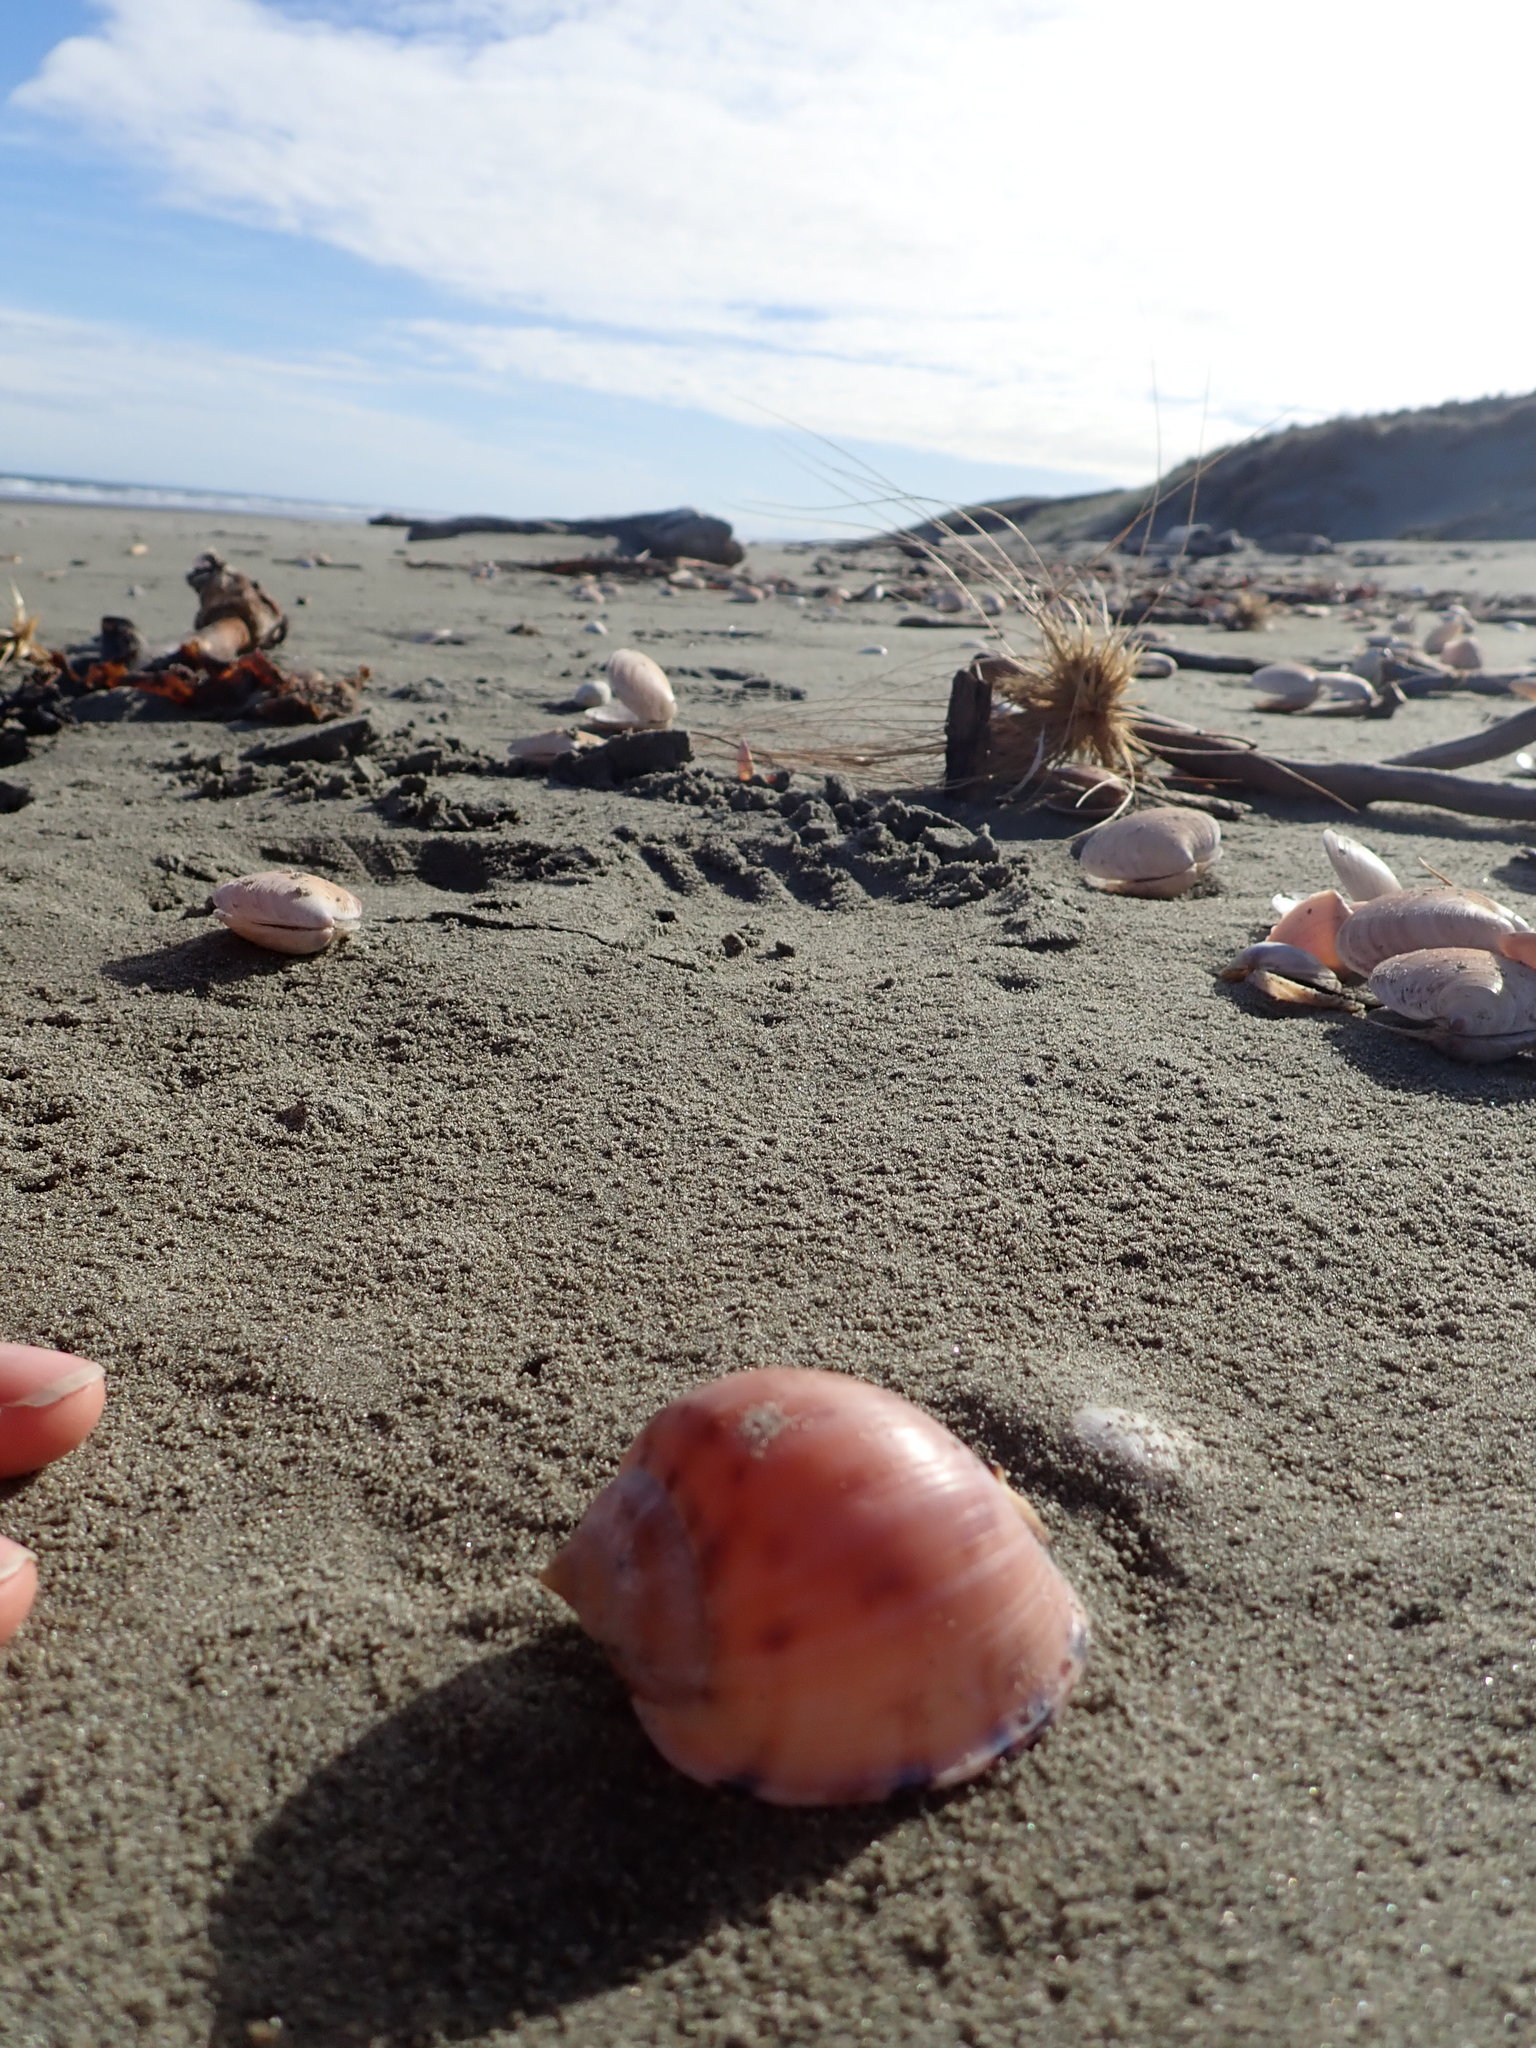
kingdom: Animalia
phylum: Mollusca
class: Gastropoda
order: Littorinimorpha
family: Cassidae
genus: Semicassis
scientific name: Semicassis pyrum
